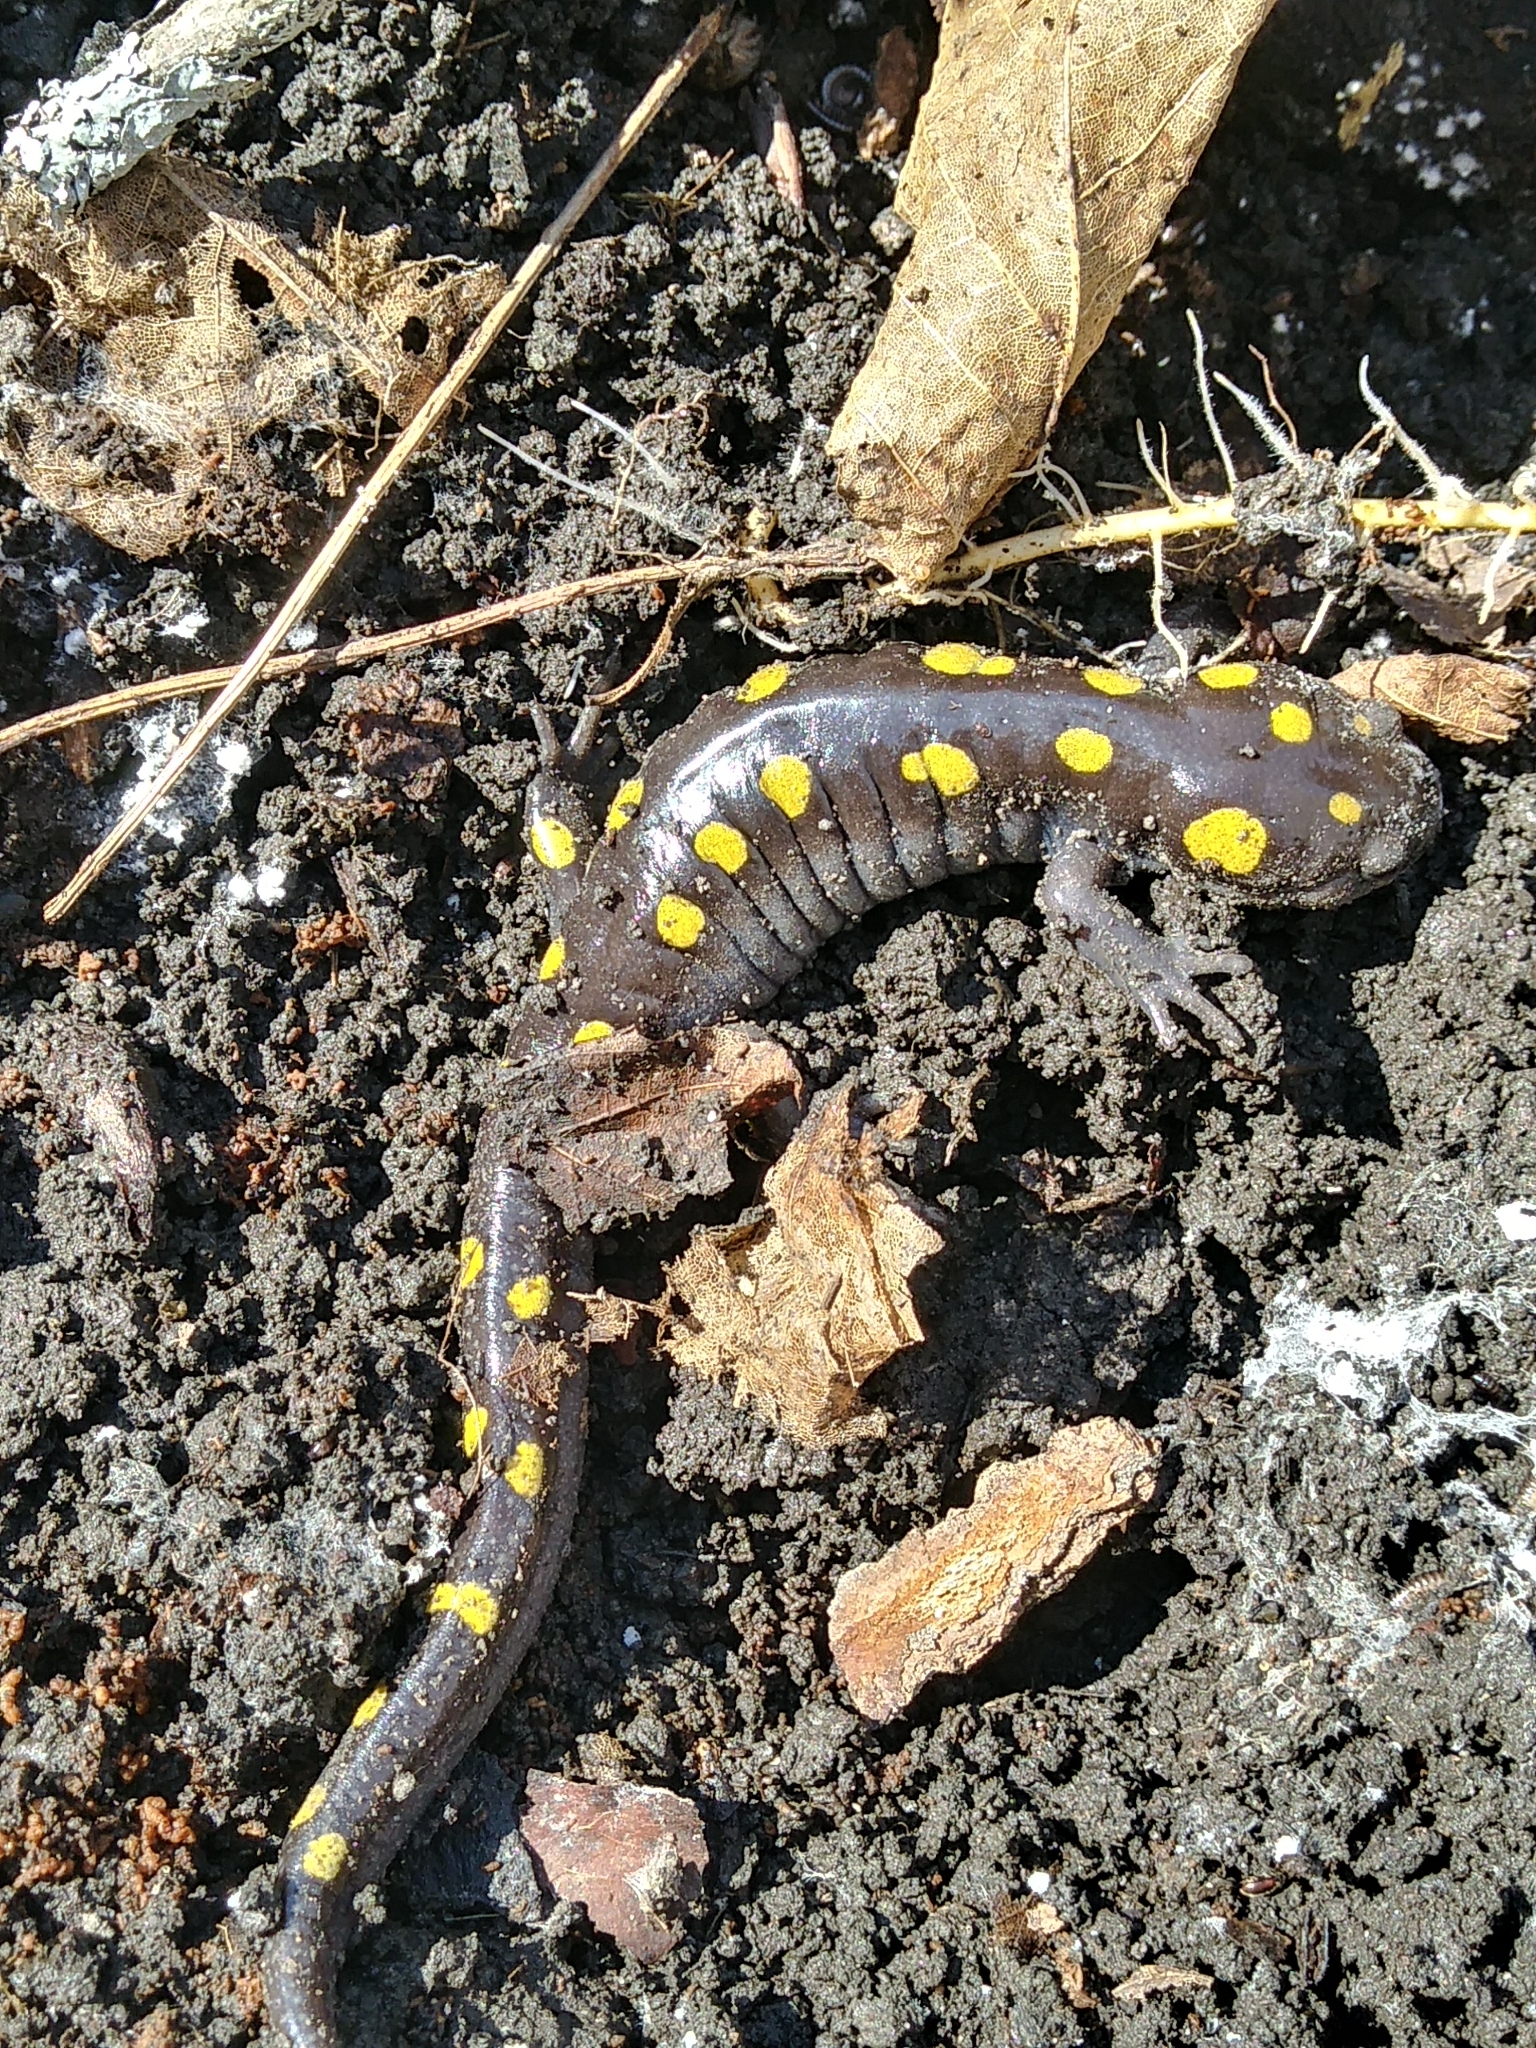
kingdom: Animalia
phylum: Chordata
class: Amphibia
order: Caudata
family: Ambystomatidae
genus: Ambystoma
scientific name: Ambystoma maculatum
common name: Spotted salamander
